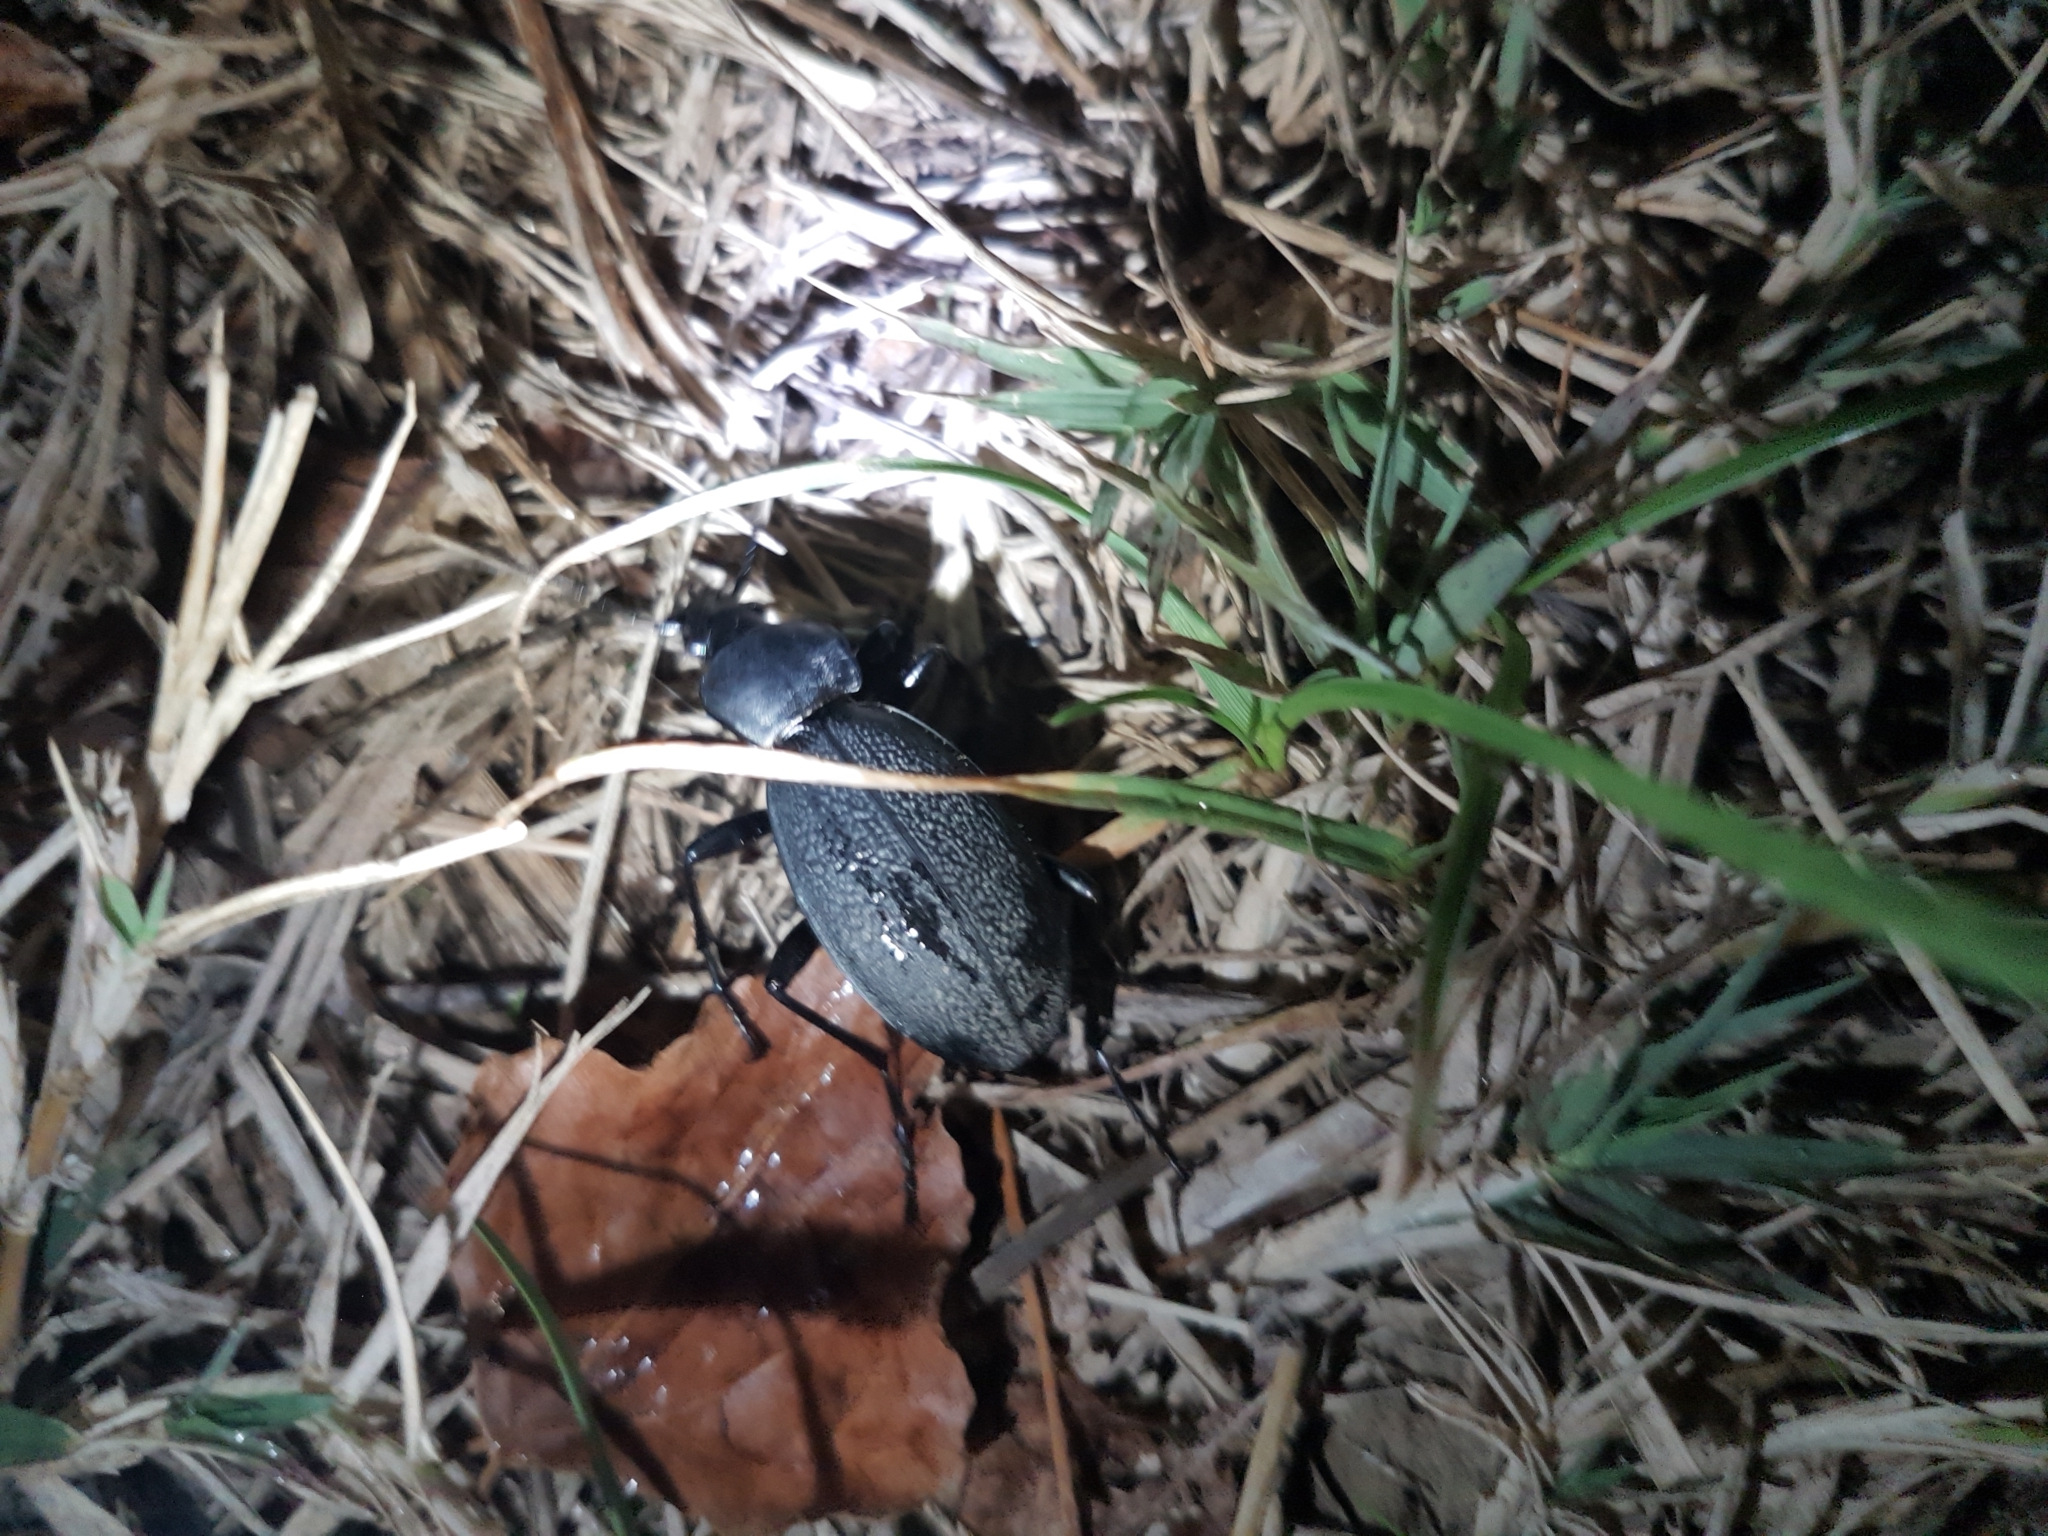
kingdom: Animalia
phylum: Arthropoda
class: Insecta
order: Coleoptera
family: Carabidae
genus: Carabus
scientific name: Carabus coriaceus
